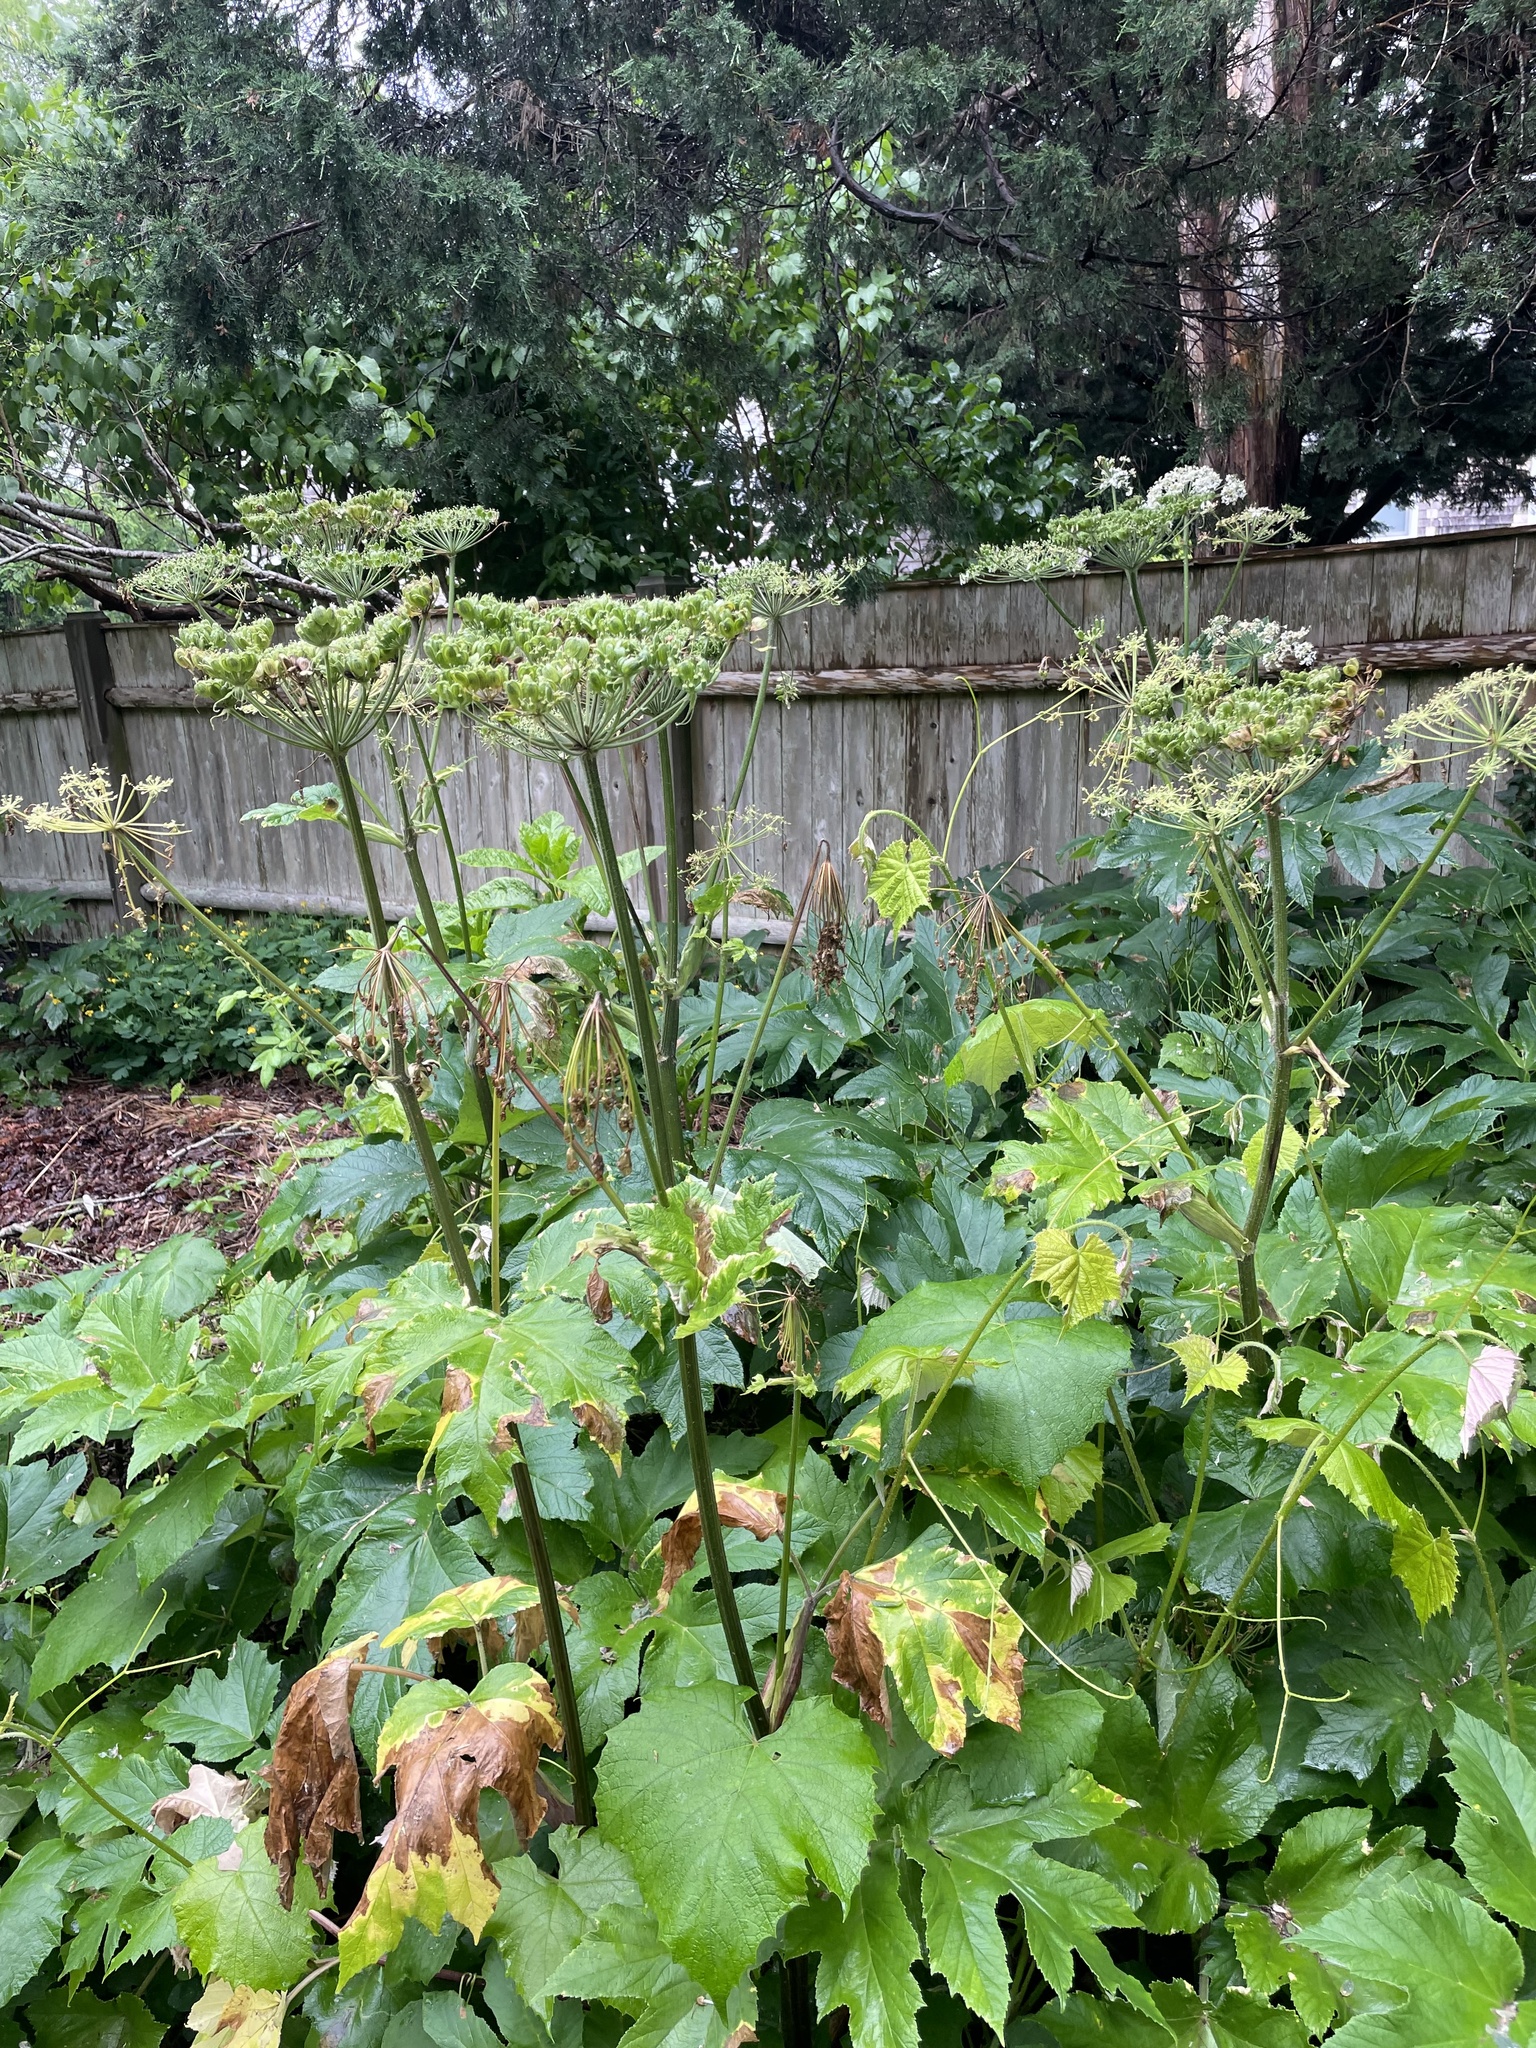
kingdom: Plantae
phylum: Tracheophyta
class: Magnoliopsida
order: Apiales
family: Apiaceae
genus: Heracleum
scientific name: Heracleum maximum
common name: American cow parsnip
